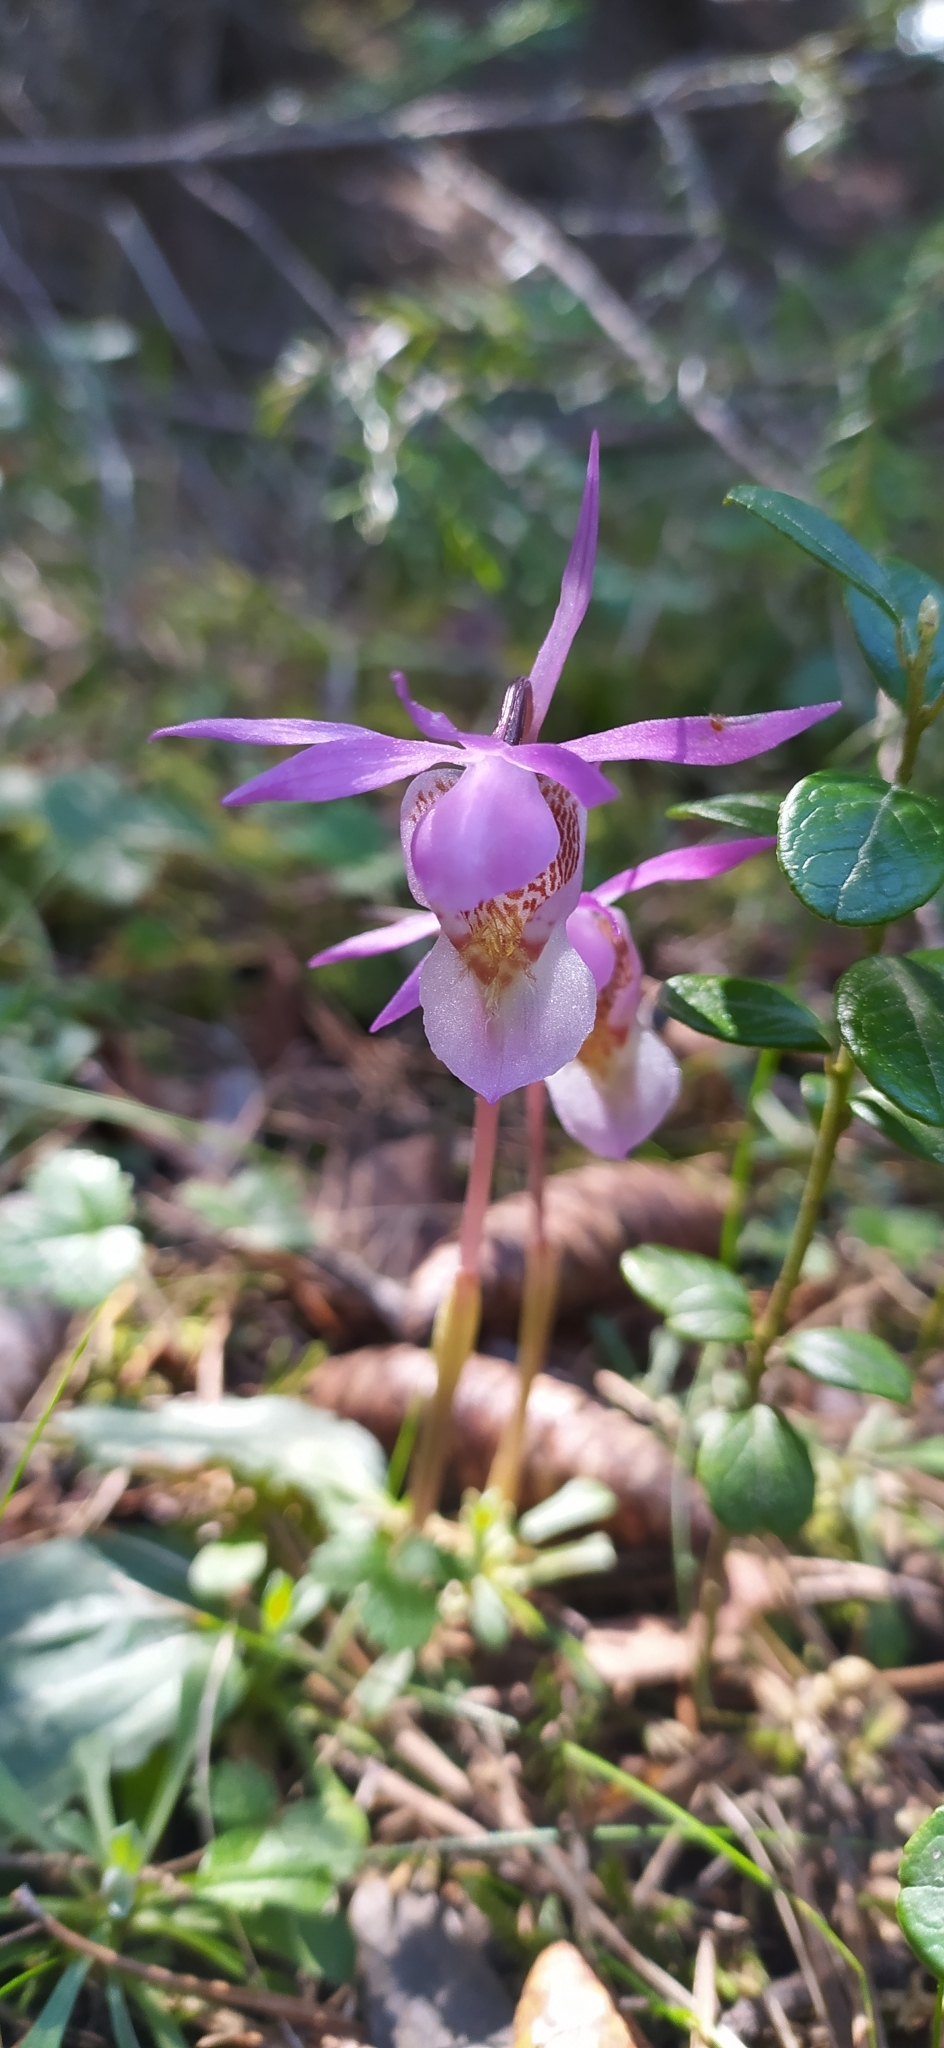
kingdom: Plantae
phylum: Tracheophyta
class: Liliopsida
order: Asparagales
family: Orchidaceae
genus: Calypso
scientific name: Calypso bulbosa
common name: Calypso
